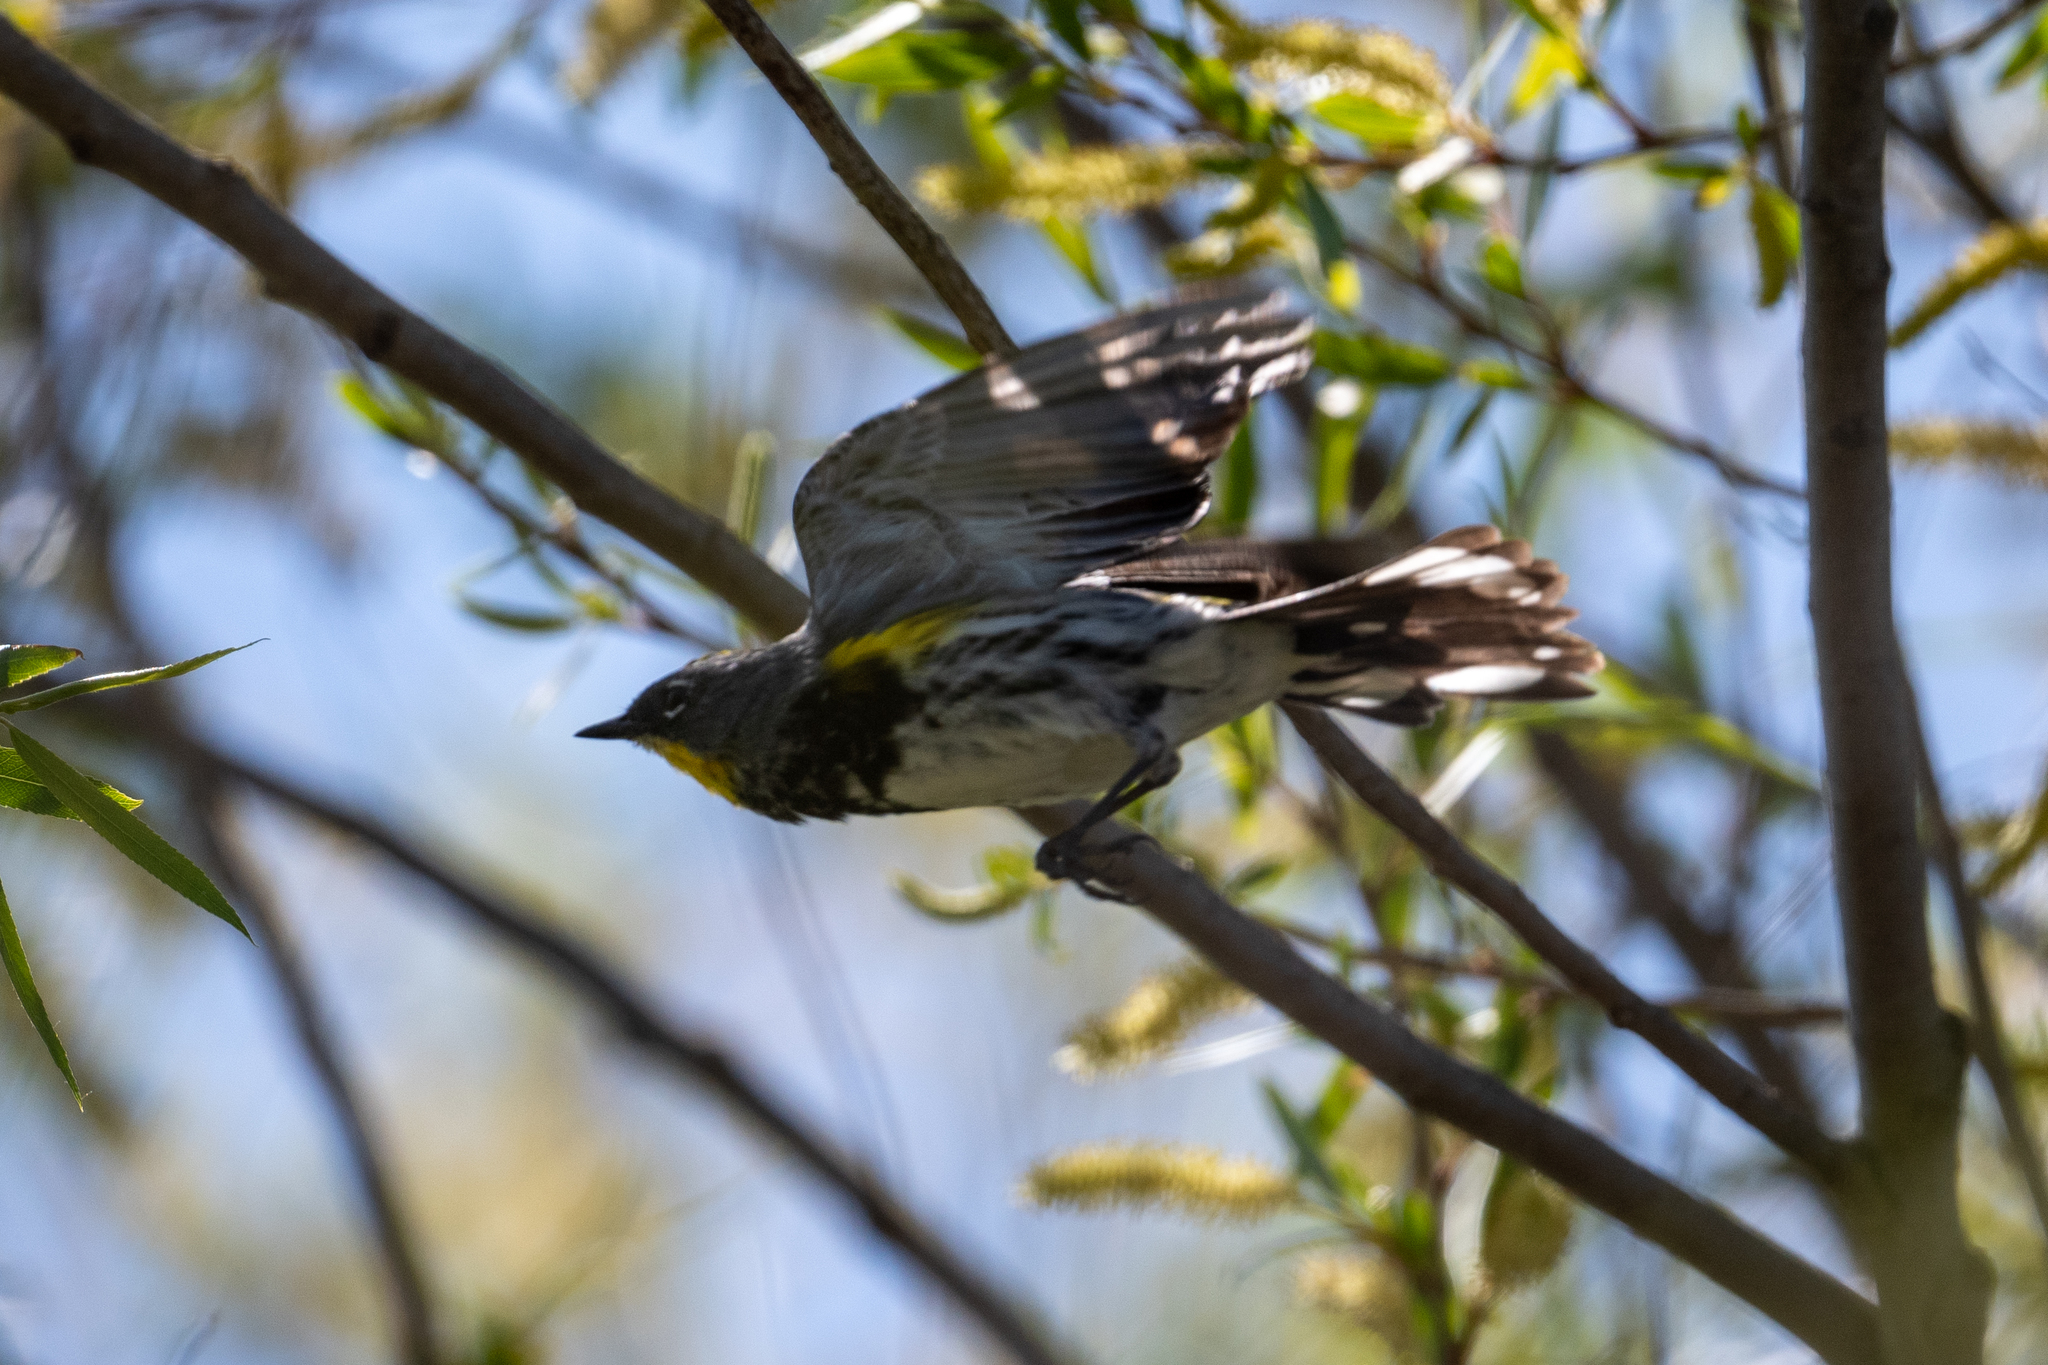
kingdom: Animalia
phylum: Chordata
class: Aves
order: Passeriformes
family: Parulidae
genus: Setophaga
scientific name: Setophaga coronata
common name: Myrtle warbler
